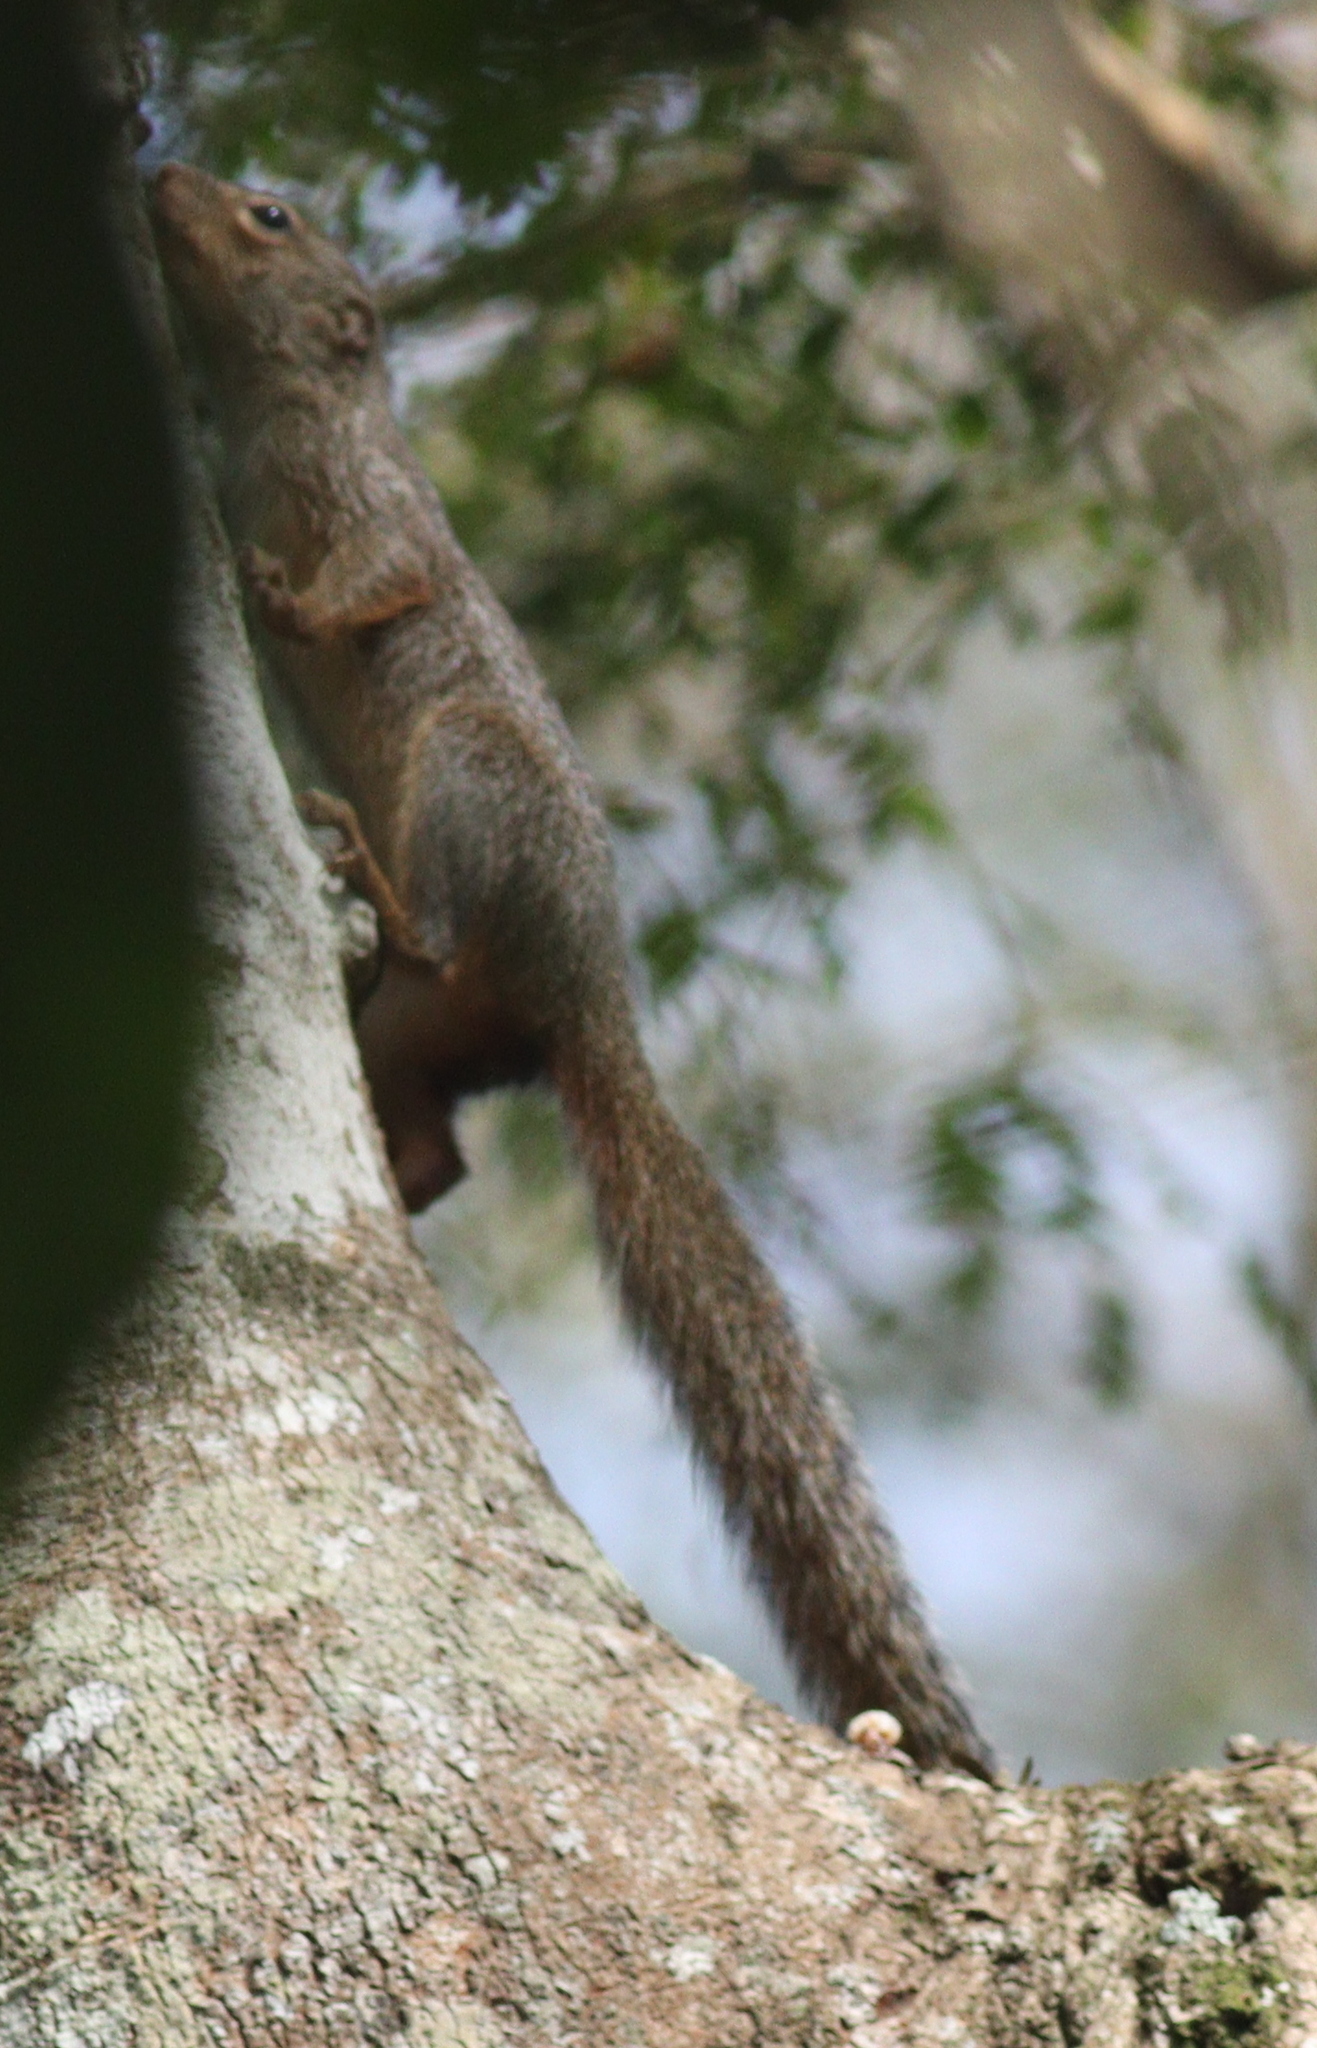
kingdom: Animalia
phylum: Chordata
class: Mammalia
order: Rodentia
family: Sciuridae
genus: Heliosciurus
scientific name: Heliosciurus rufobrachium
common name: Red-legged sun squirrel
